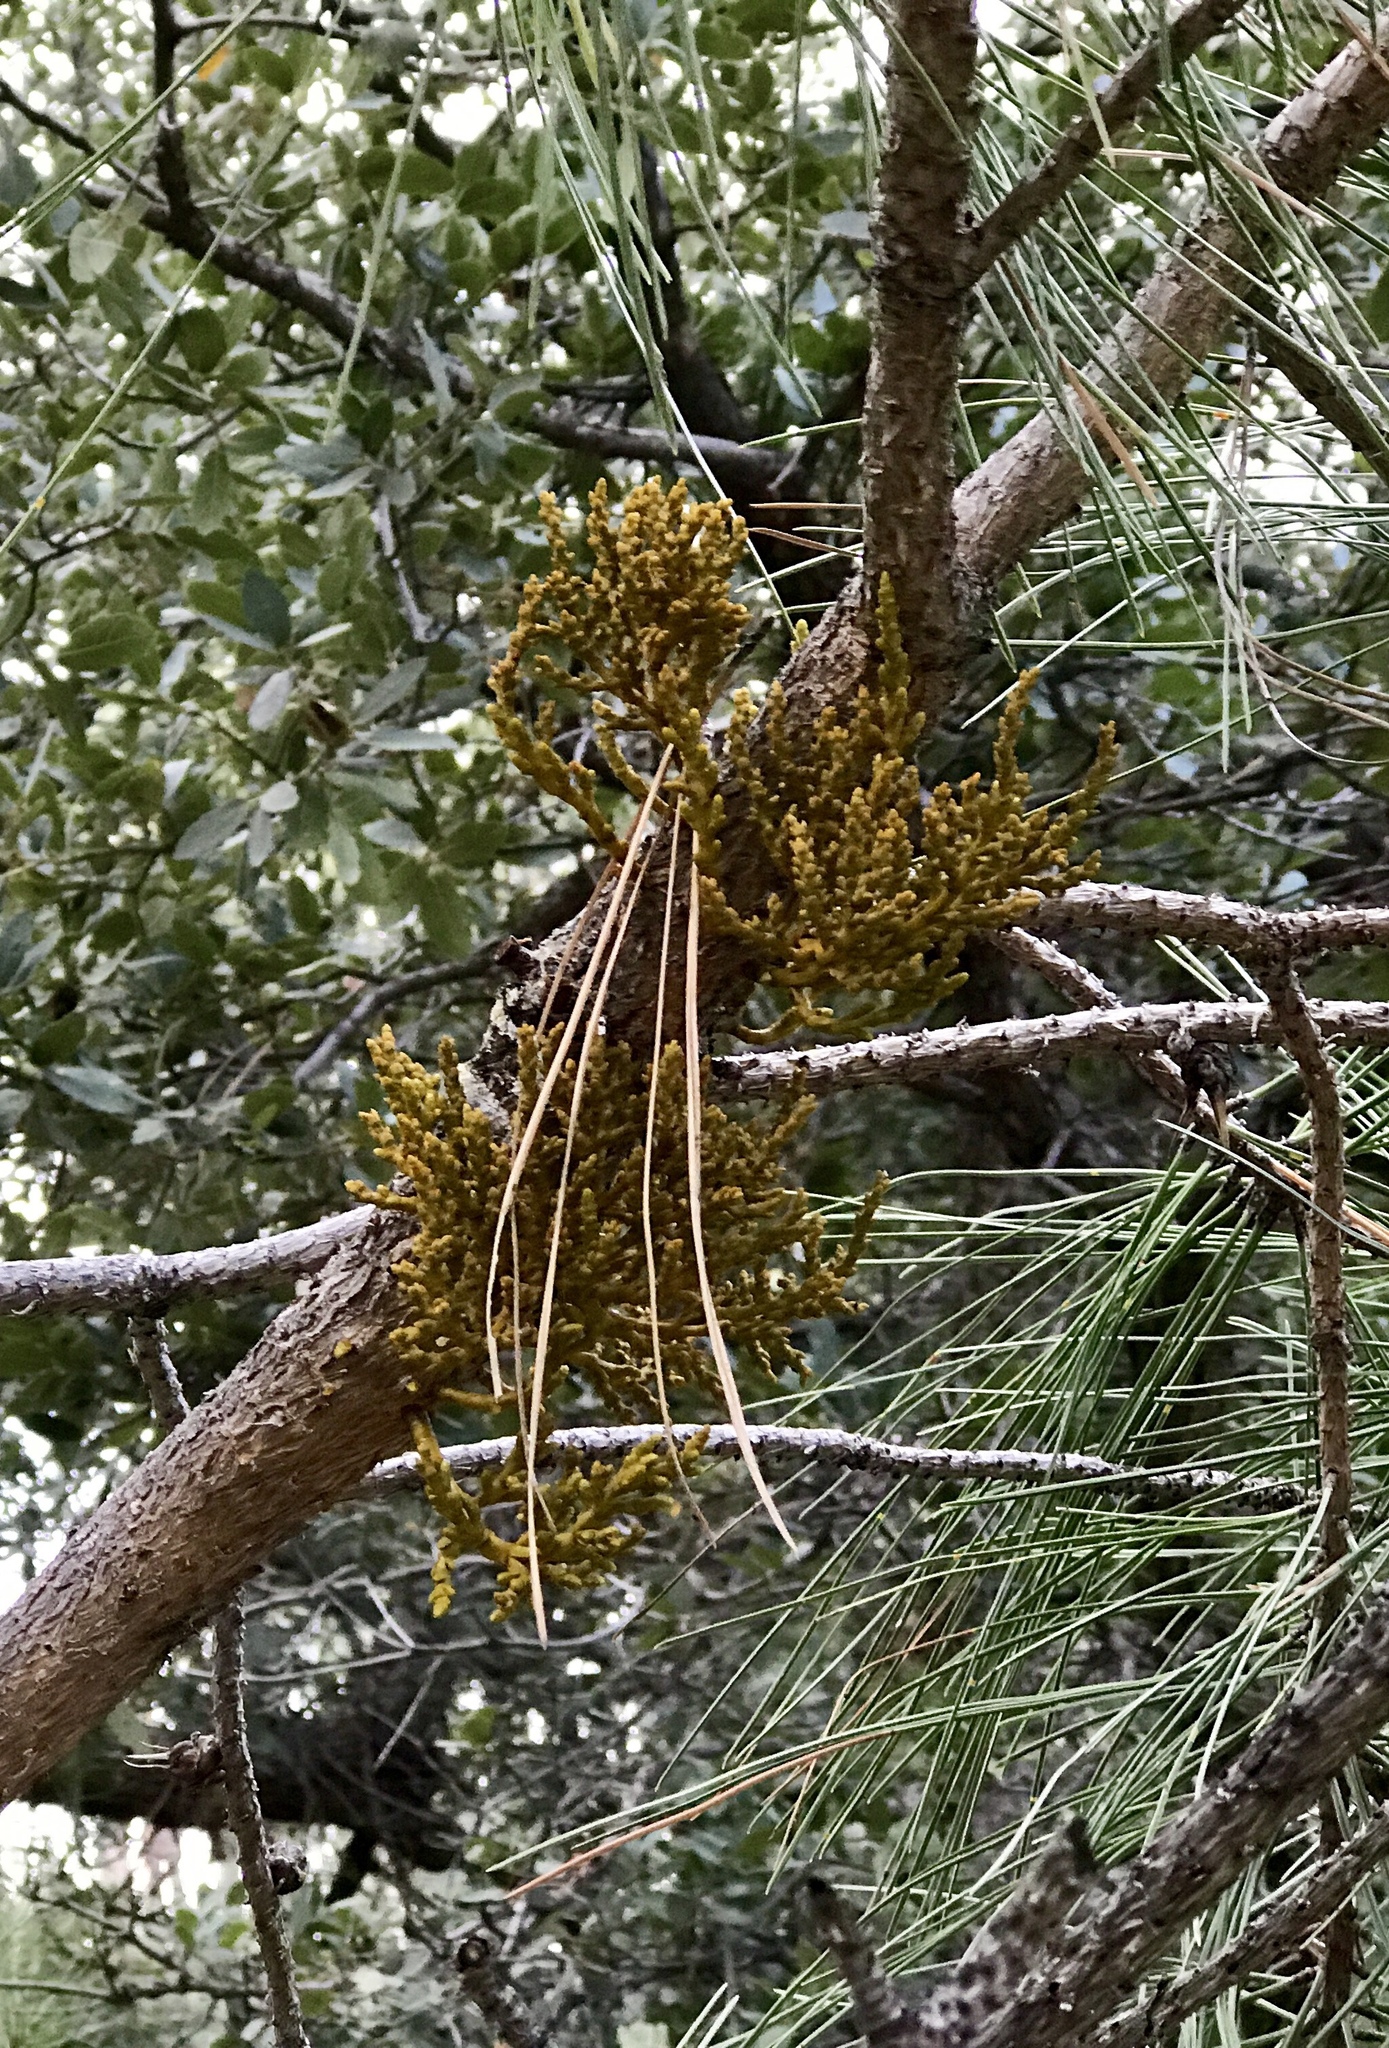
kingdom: Plantae
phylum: Tracheophyta
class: Magnoliopsida
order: Santalales
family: Viscaceae
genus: Arceuthobium
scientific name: Arceuthobium vaginatum
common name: Southwestern dwarf-mistletoe
